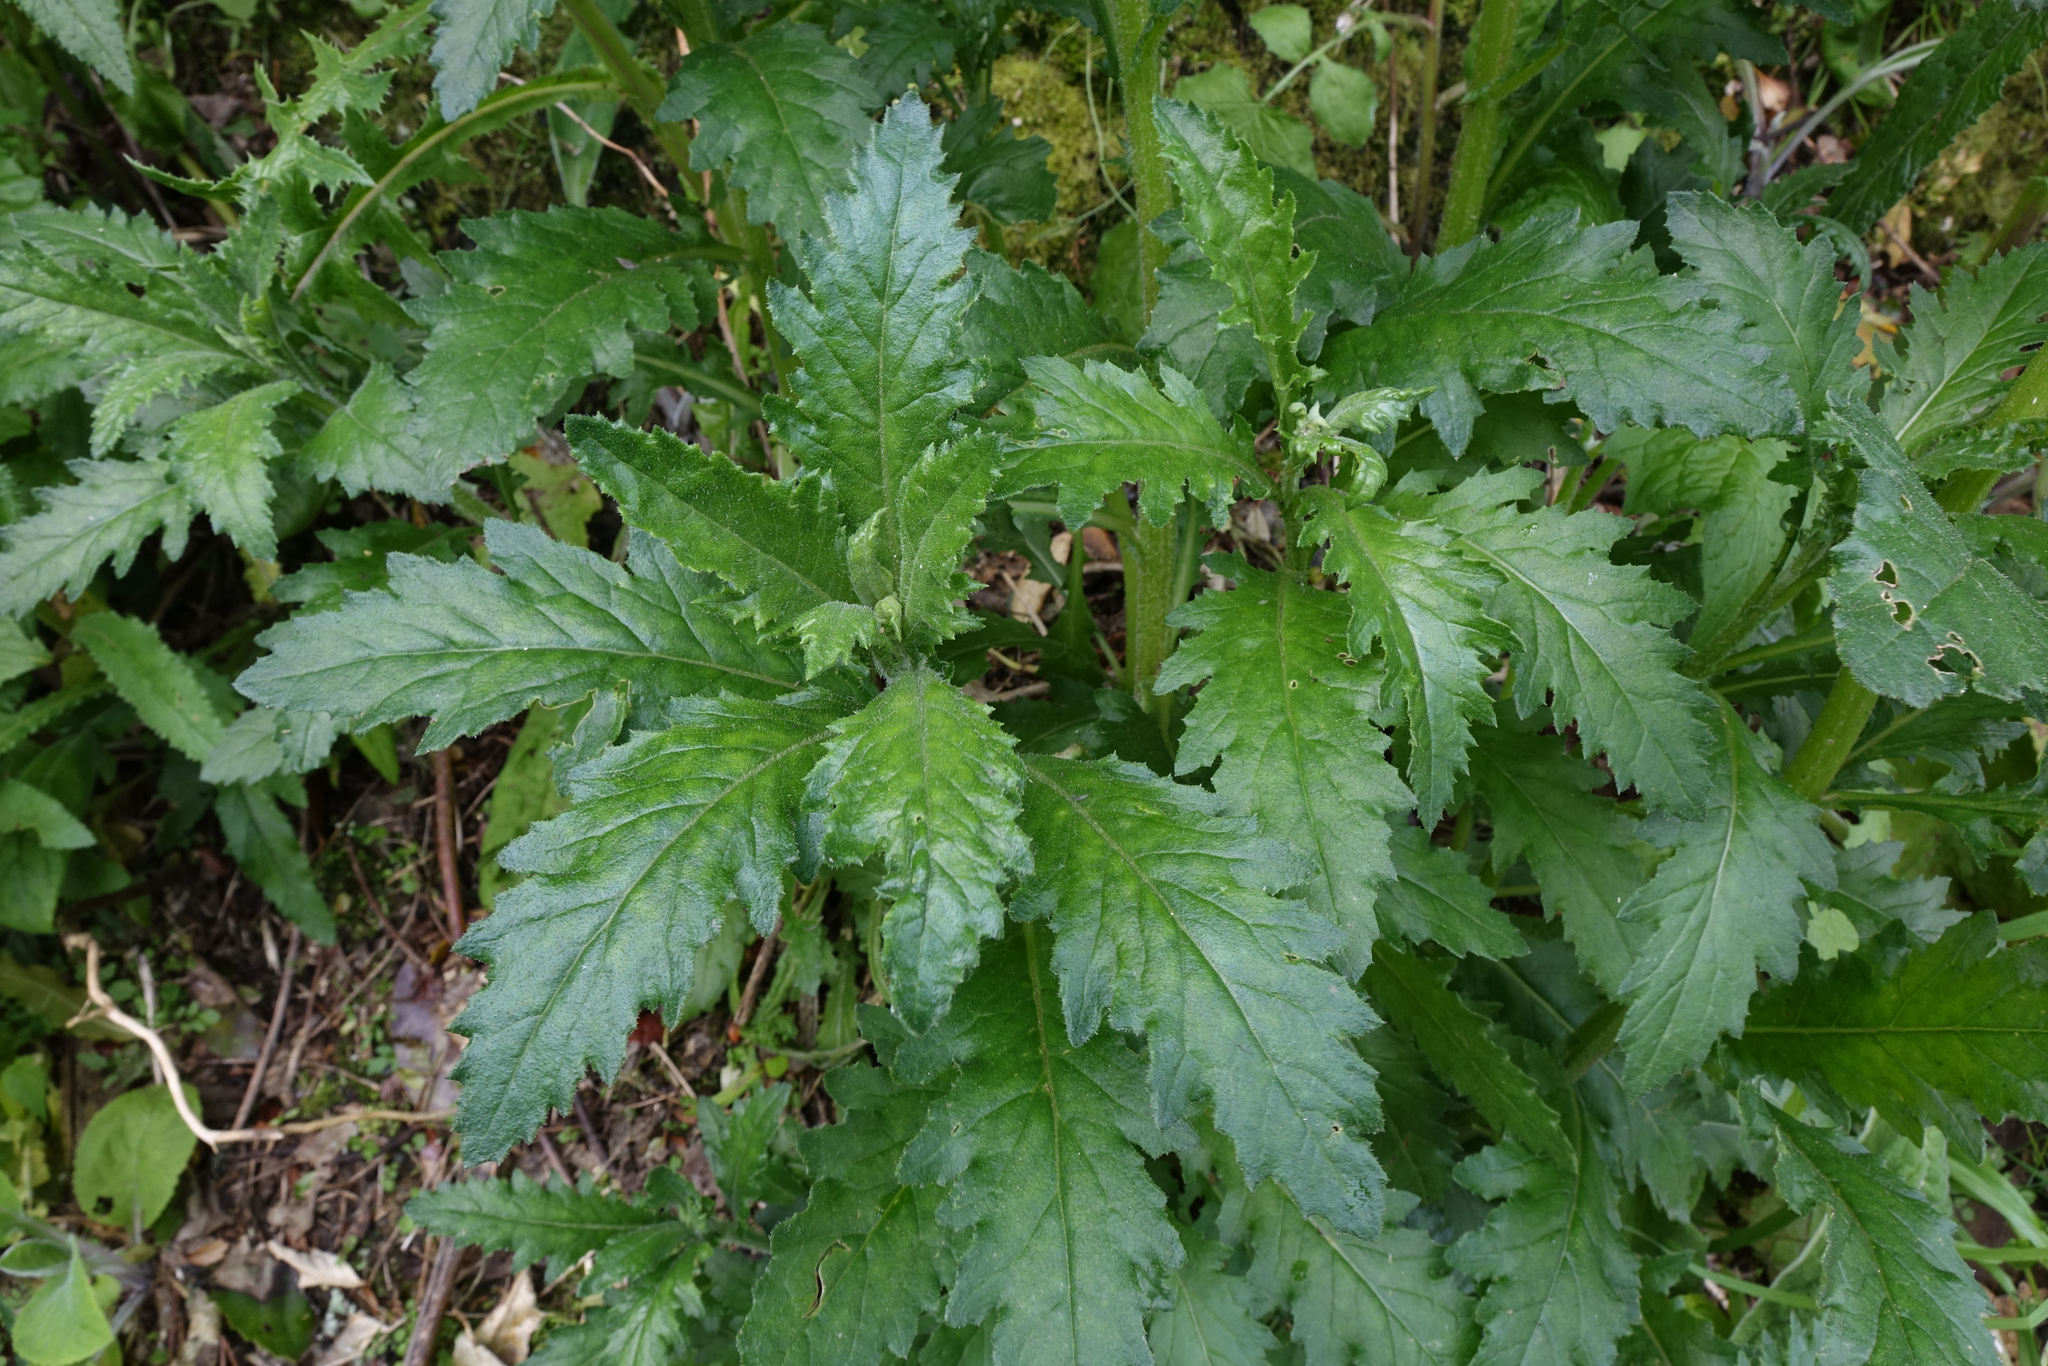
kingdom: Plantae
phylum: Tracheophyta
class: Magnoliopsida
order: Asterales
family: Asteraceae
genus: Senecio
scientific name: Senecio biserratus
